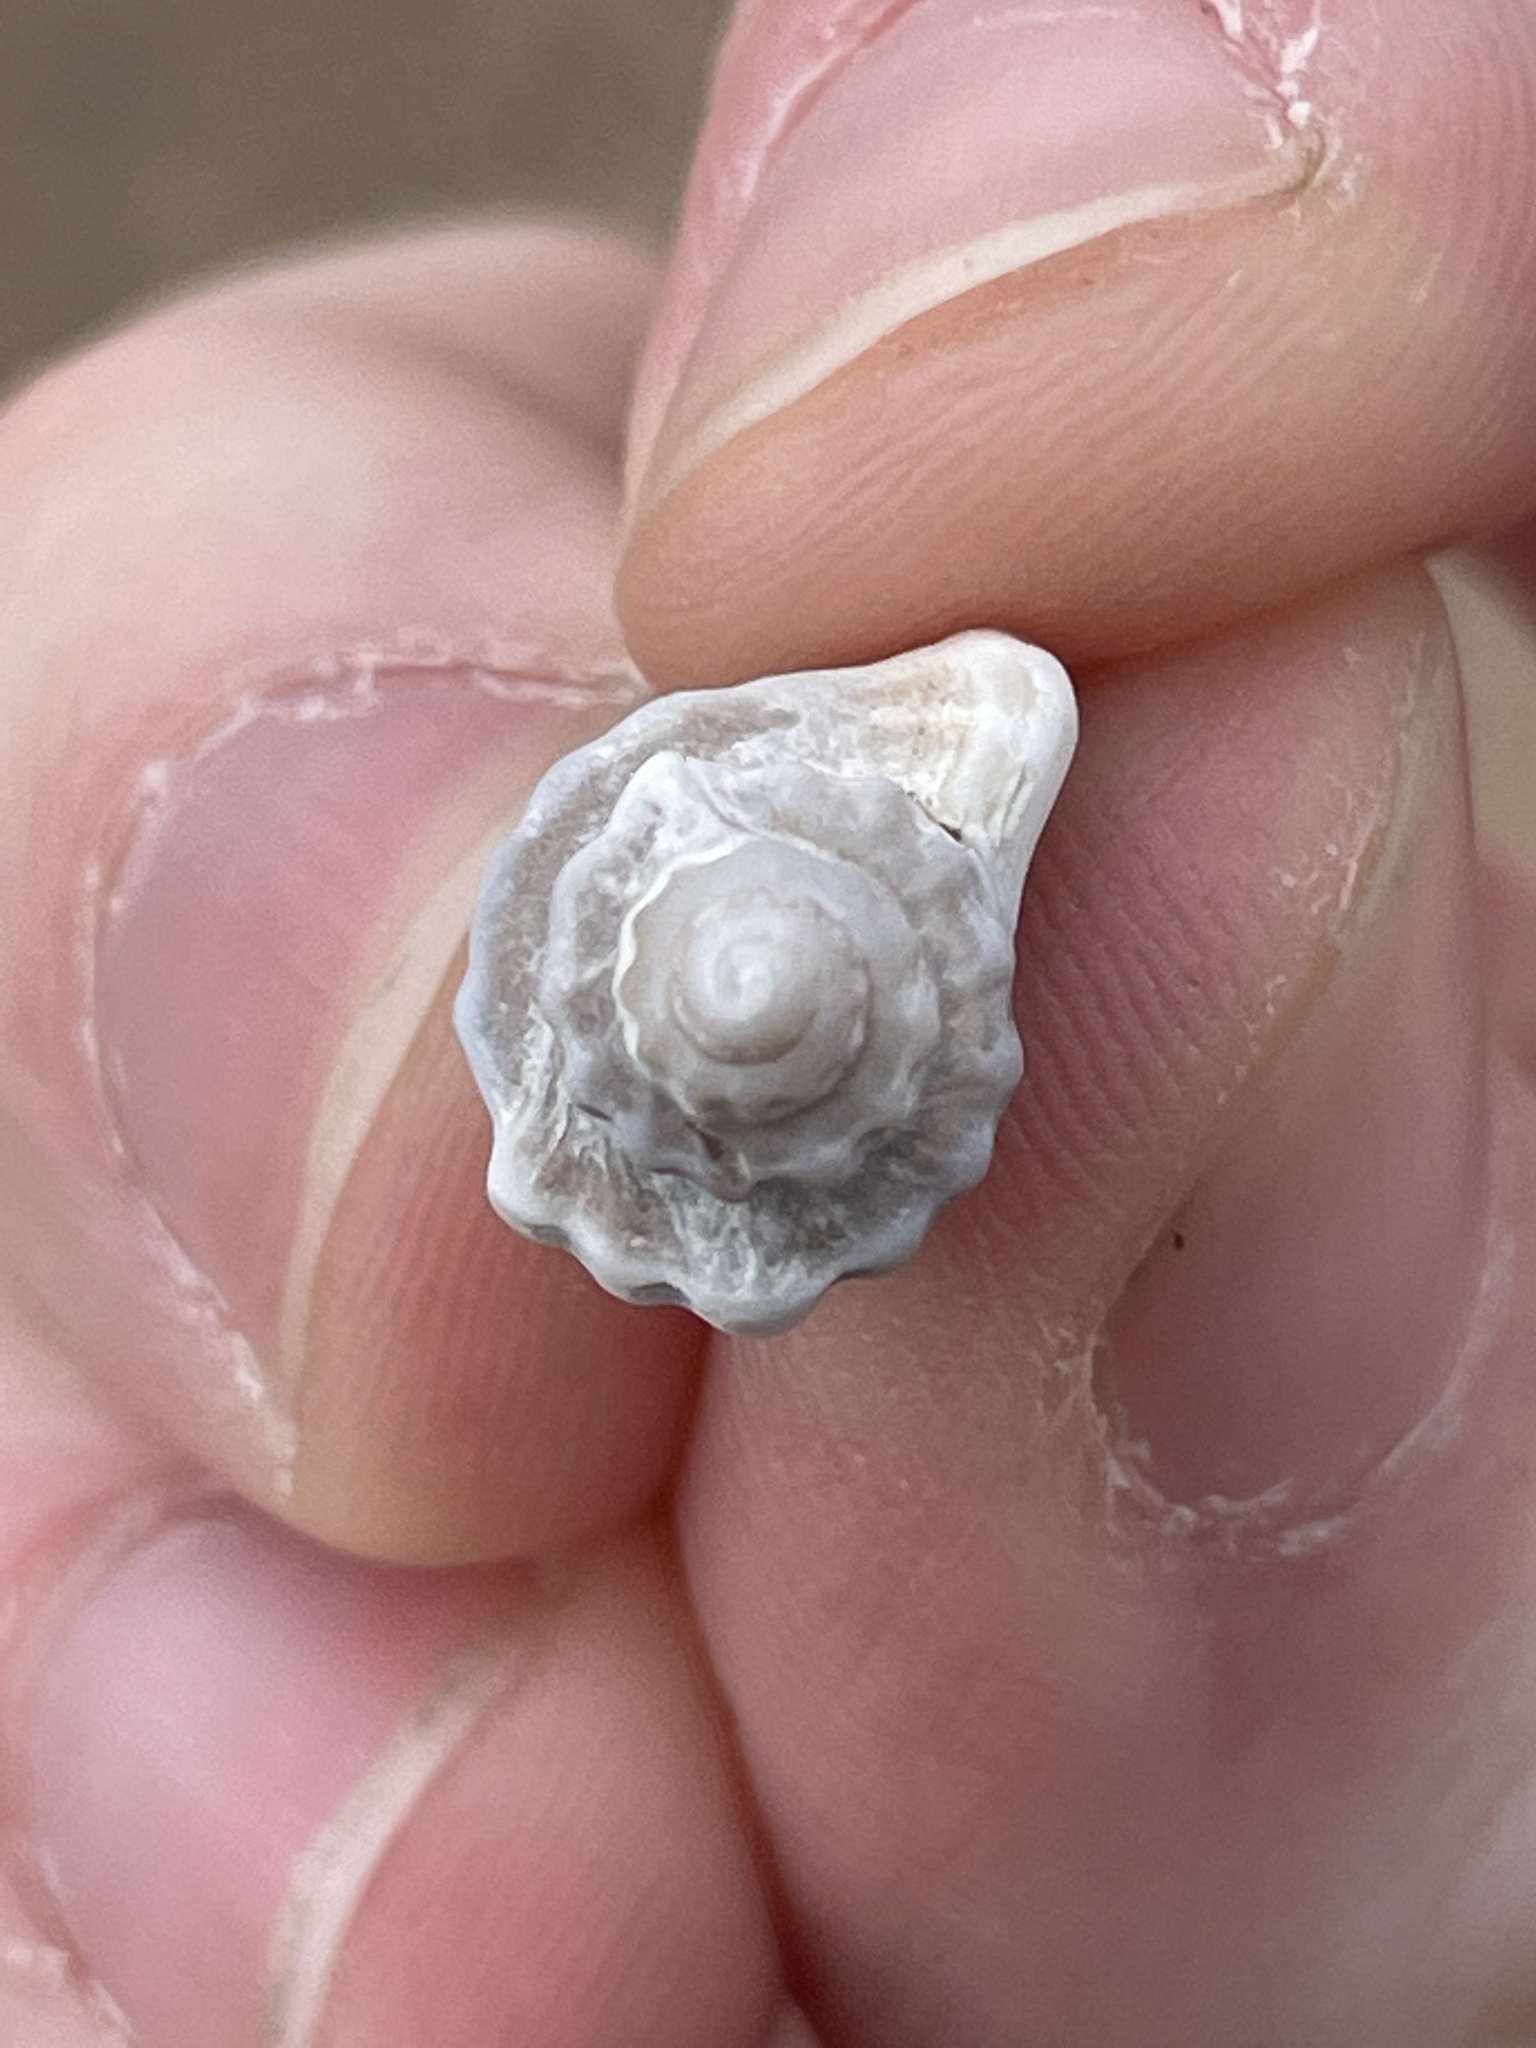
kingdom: Animalia
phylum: Mollusca
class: Gastropoda
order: Neogastropoda
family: Muricidae
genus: Eupleura
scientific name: Eupleura caudata
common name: Thick-lip drill
